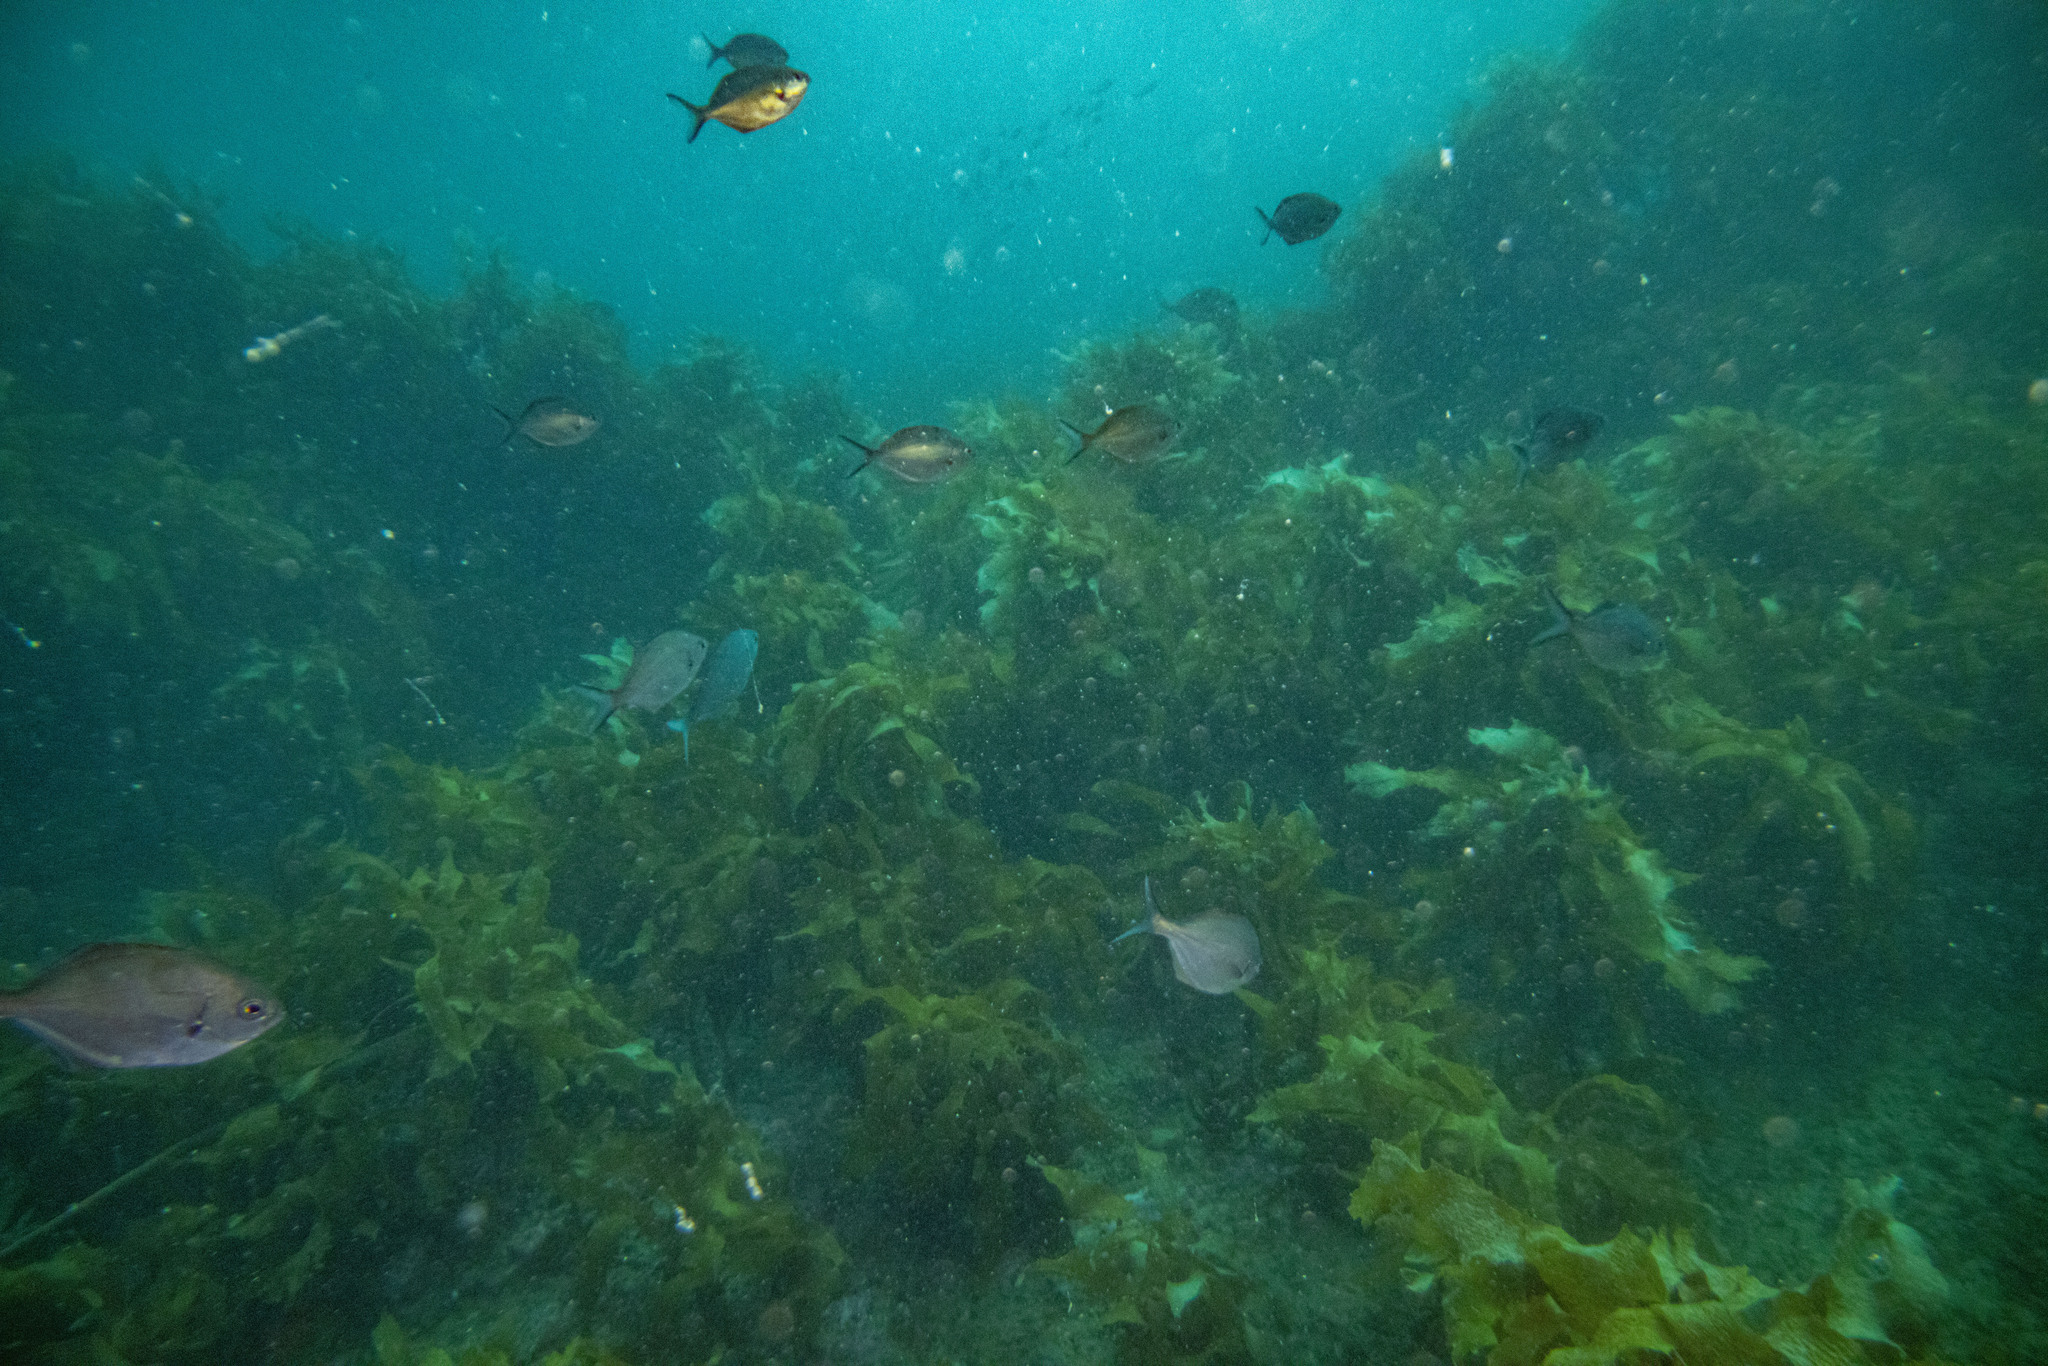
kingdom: Animalia
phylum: Chordata
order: Perciformes
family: Kyphosidae
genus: Scorpis
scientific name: Scorpis lineolata
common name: Sweep
